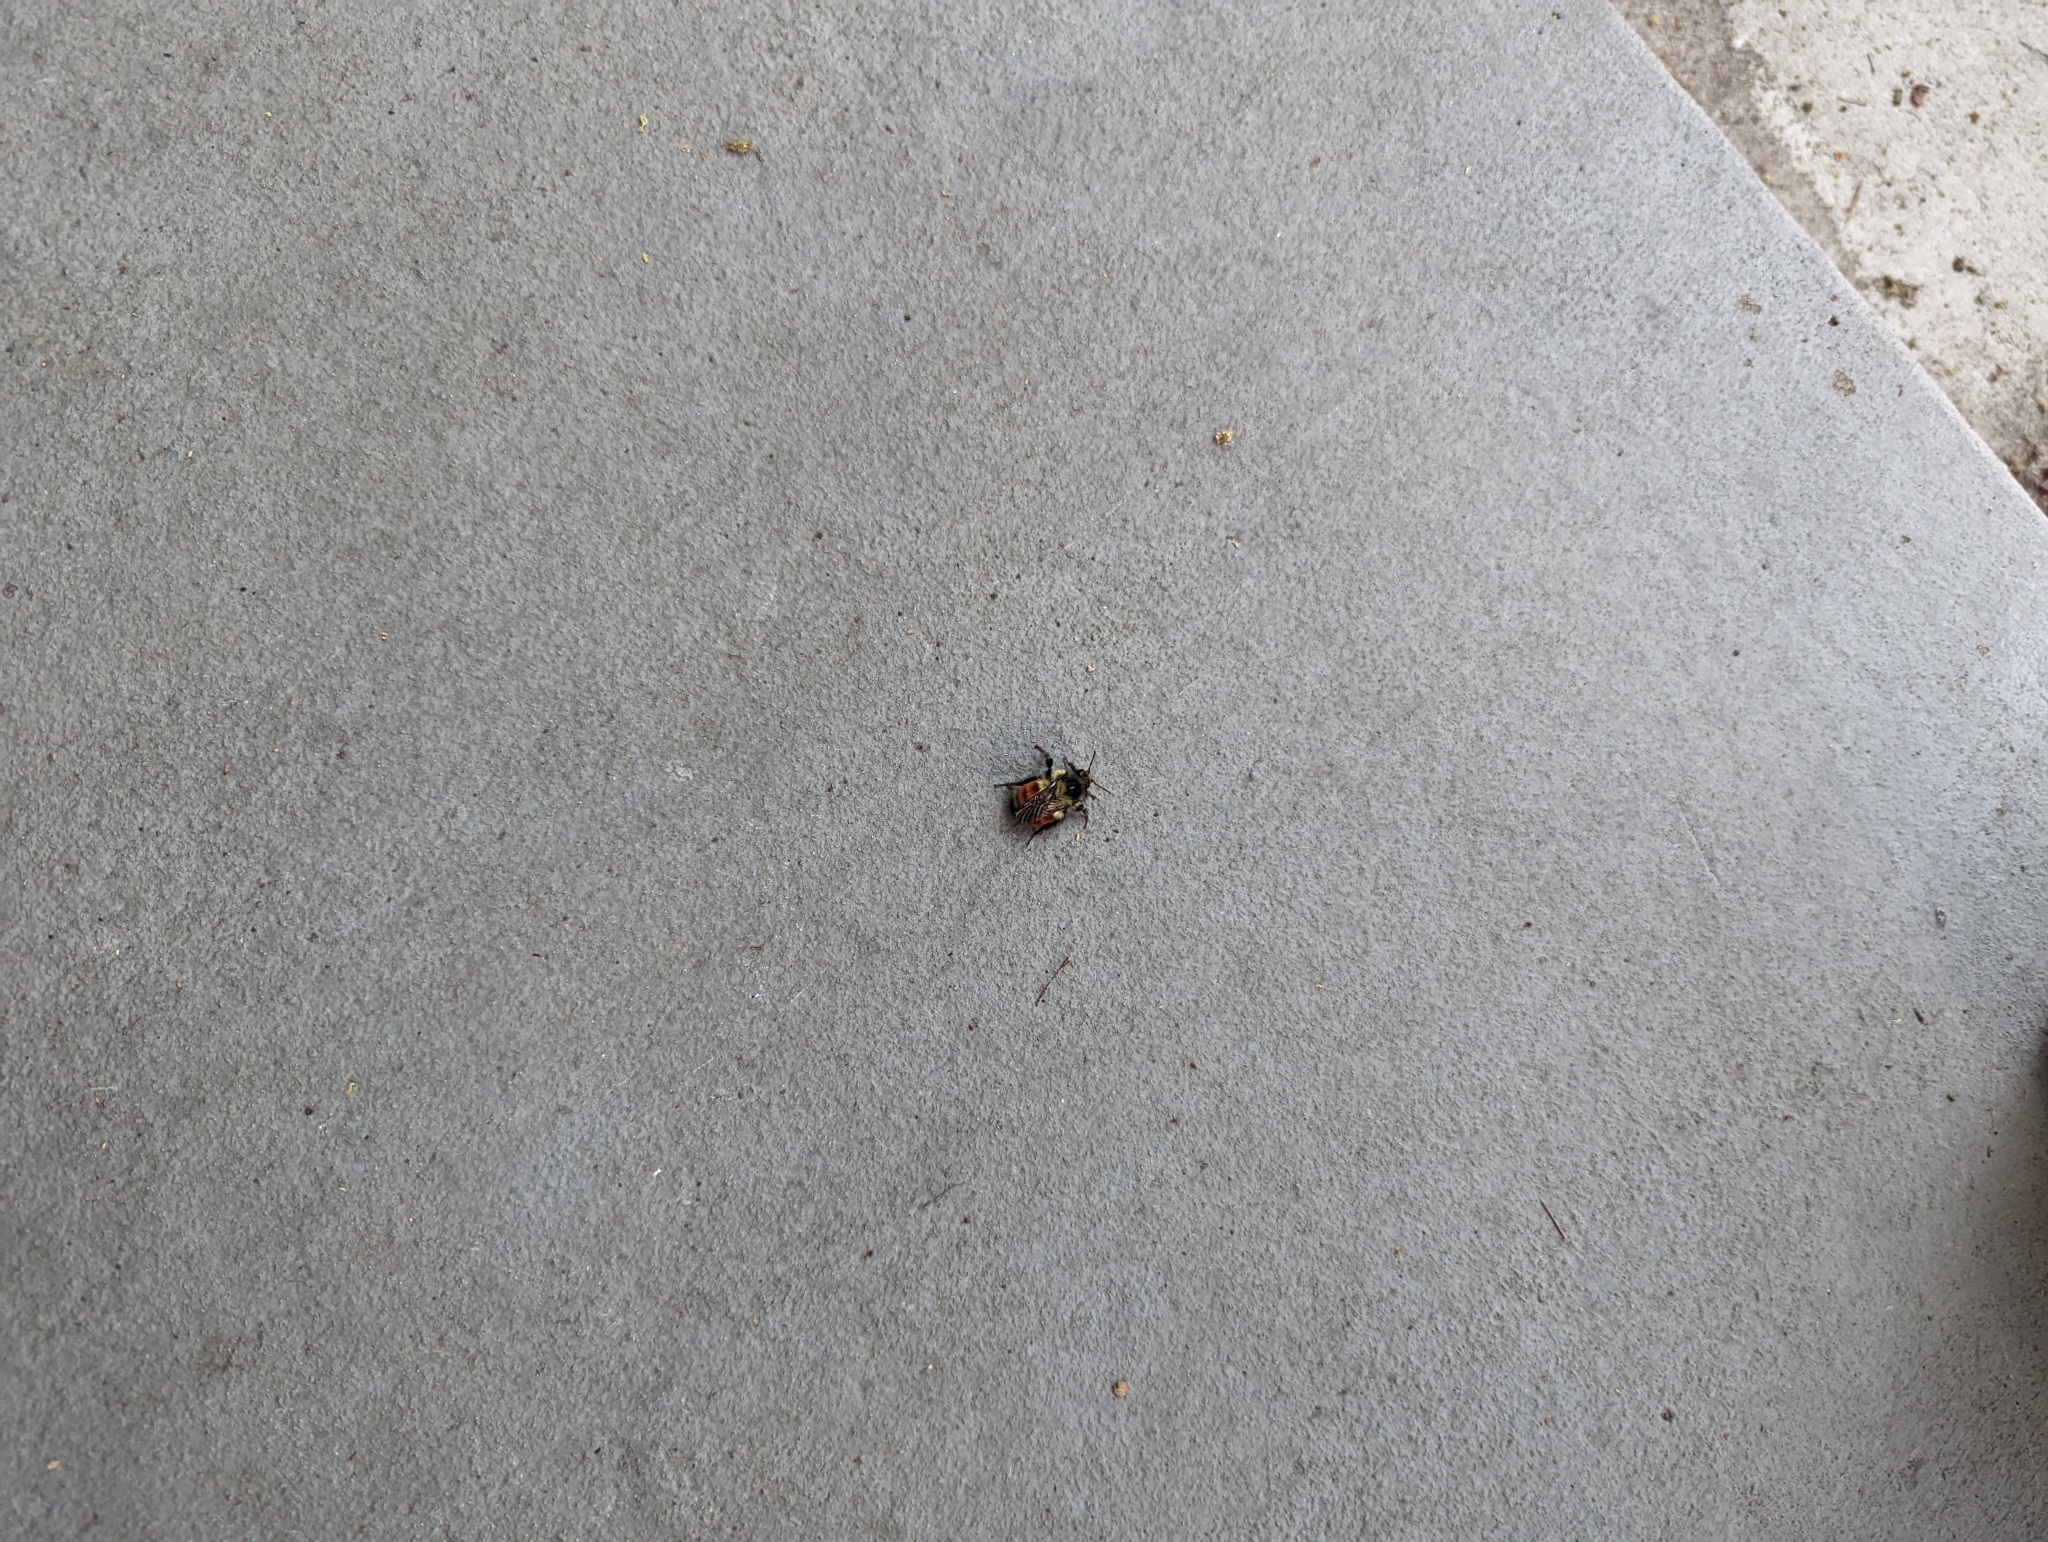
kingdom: Animalia
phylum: Arthropoda
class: Insecta
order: Hymenoptera
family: Apidae
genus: Bombus
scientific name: Bombus melanopygus
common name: Black tail bumble bee
